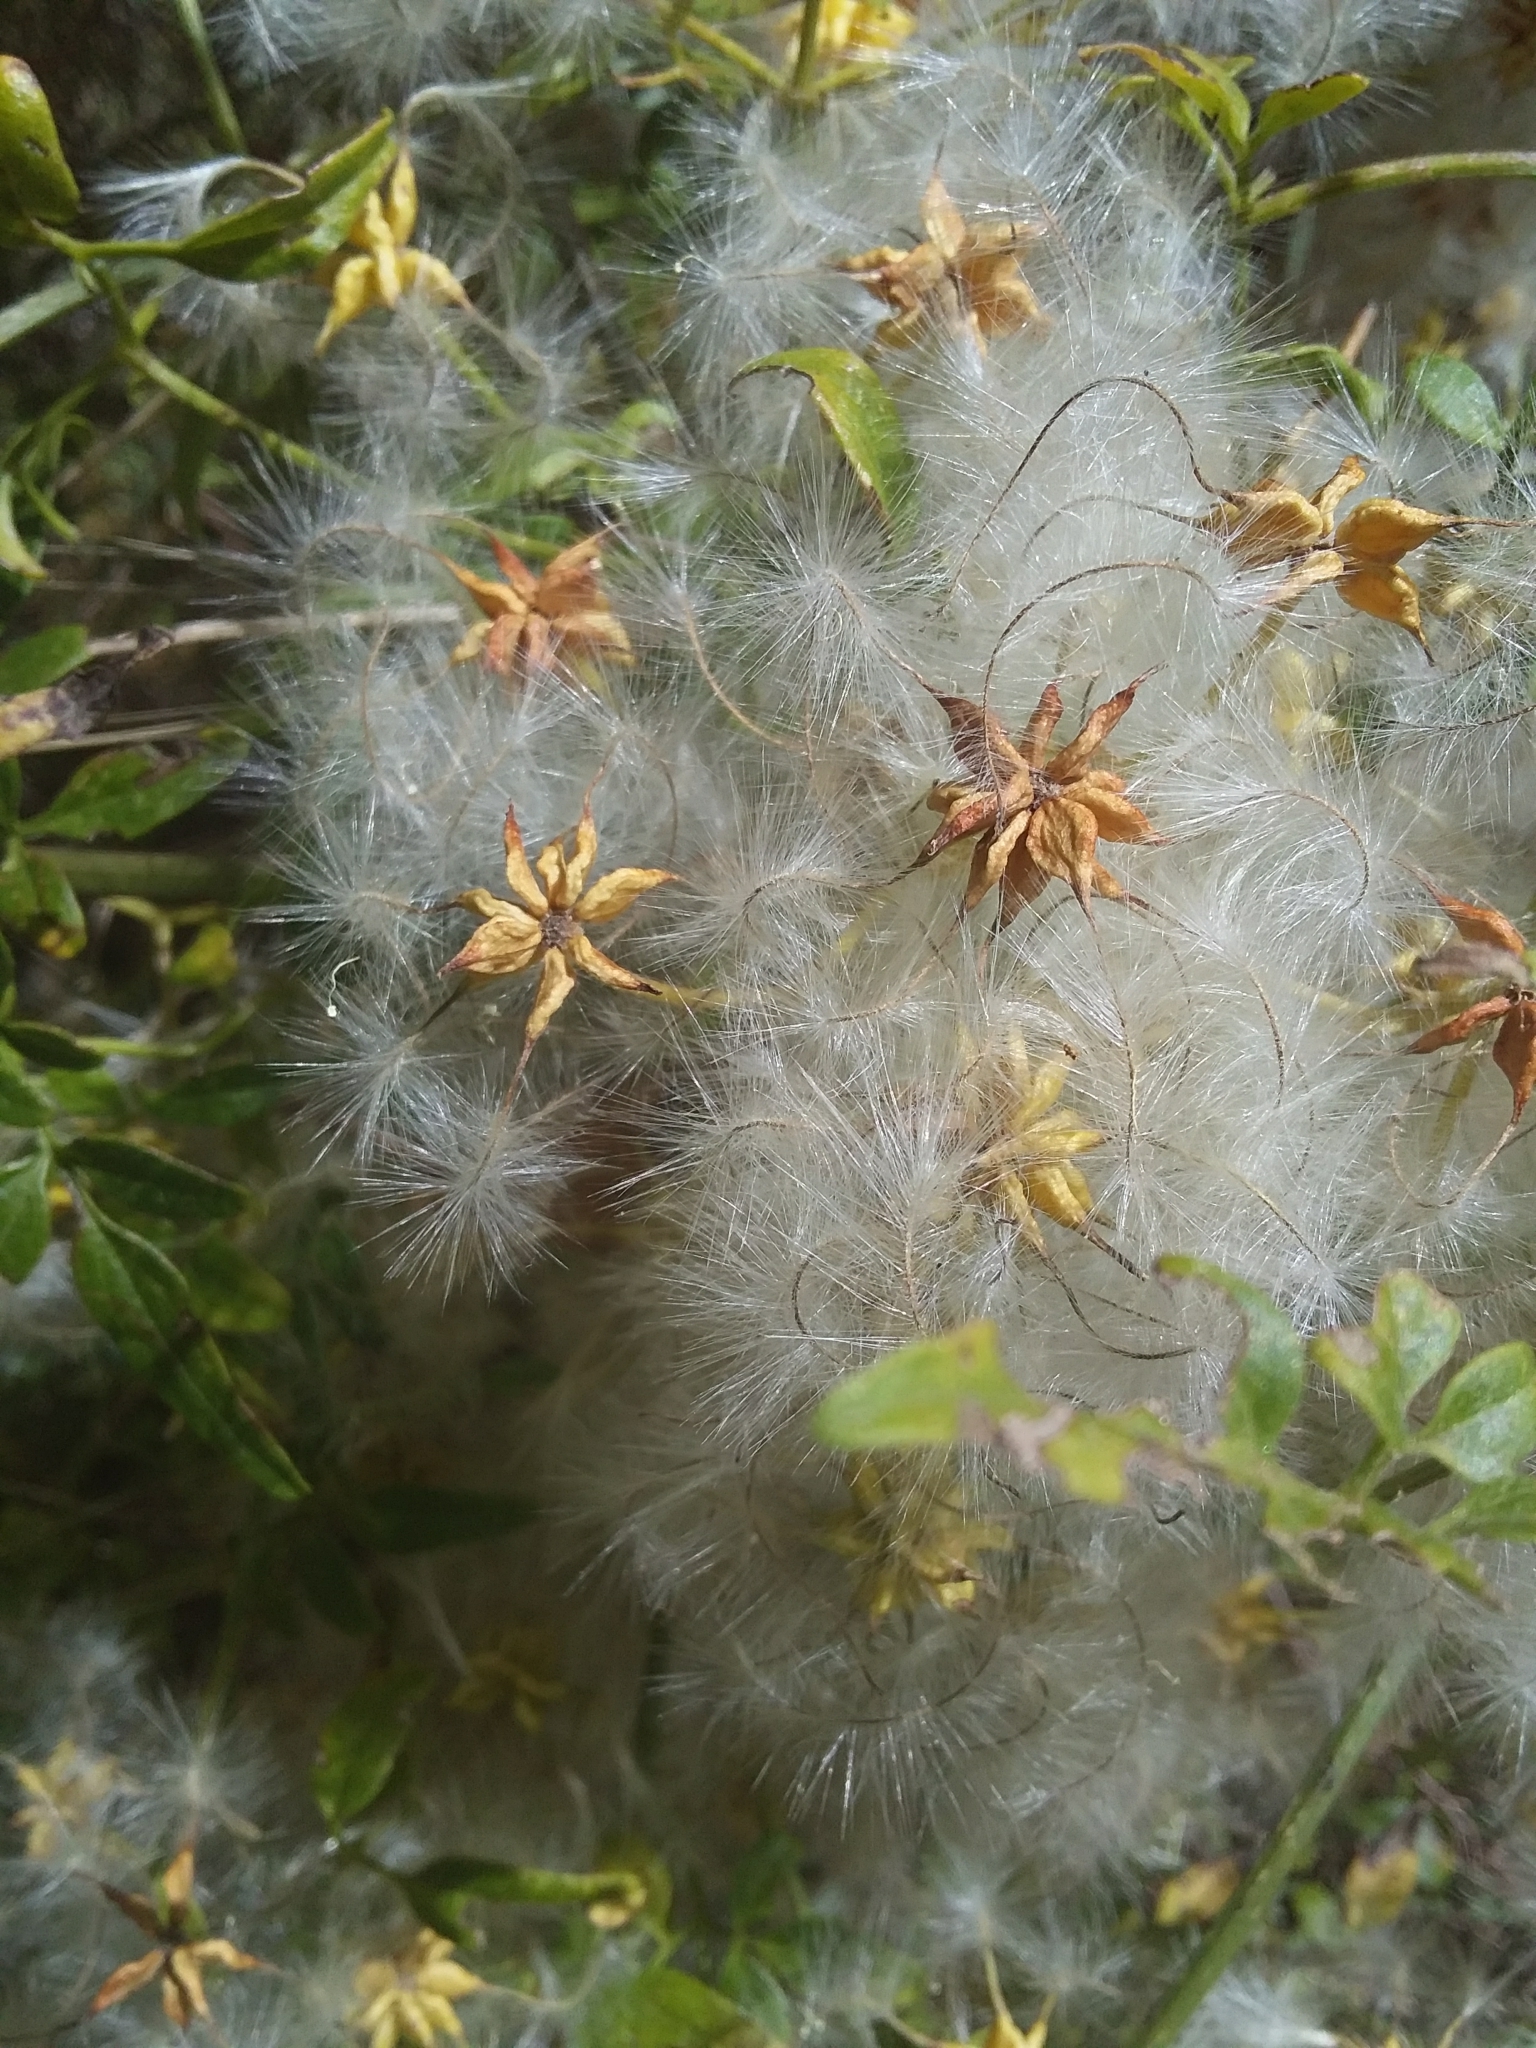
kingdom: Plantae
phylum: Tracheophyta
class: Magnoliopsida
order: Ranunculales
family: Ranunculaceae
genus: Clematis
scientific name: Clematis microphylla
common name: Headachevine
